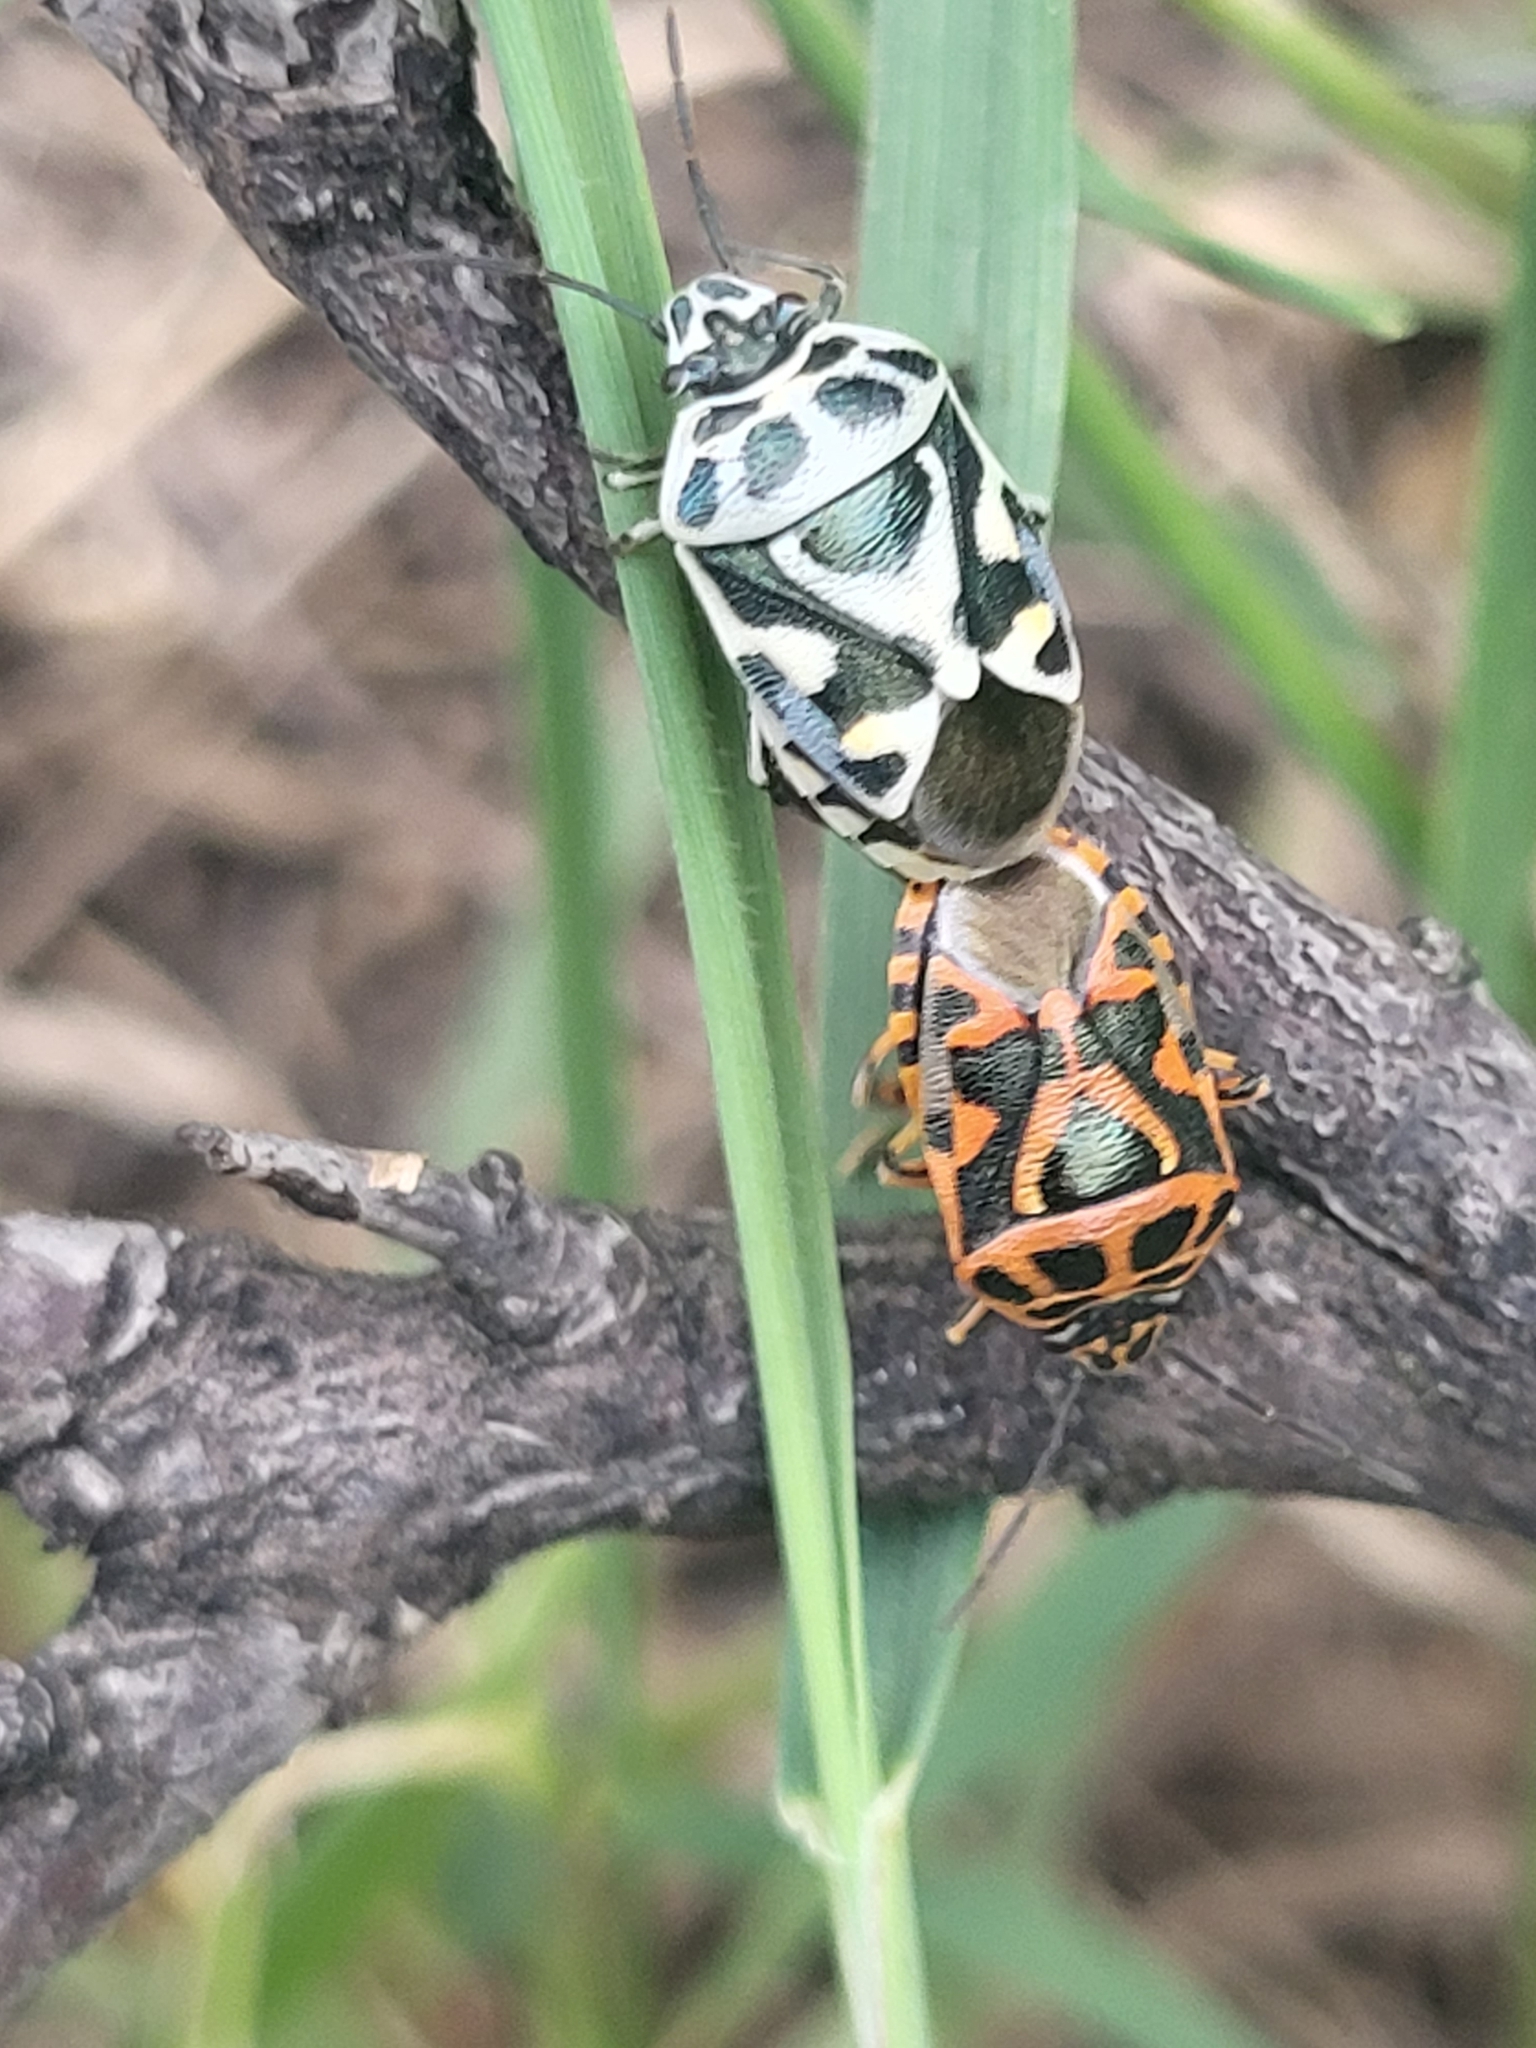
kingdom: Animalia
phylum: Arthropoda
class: Insecta
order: Hemiptera
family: Pentatomidae
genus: Eurydema
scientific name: Eurydema ornata
